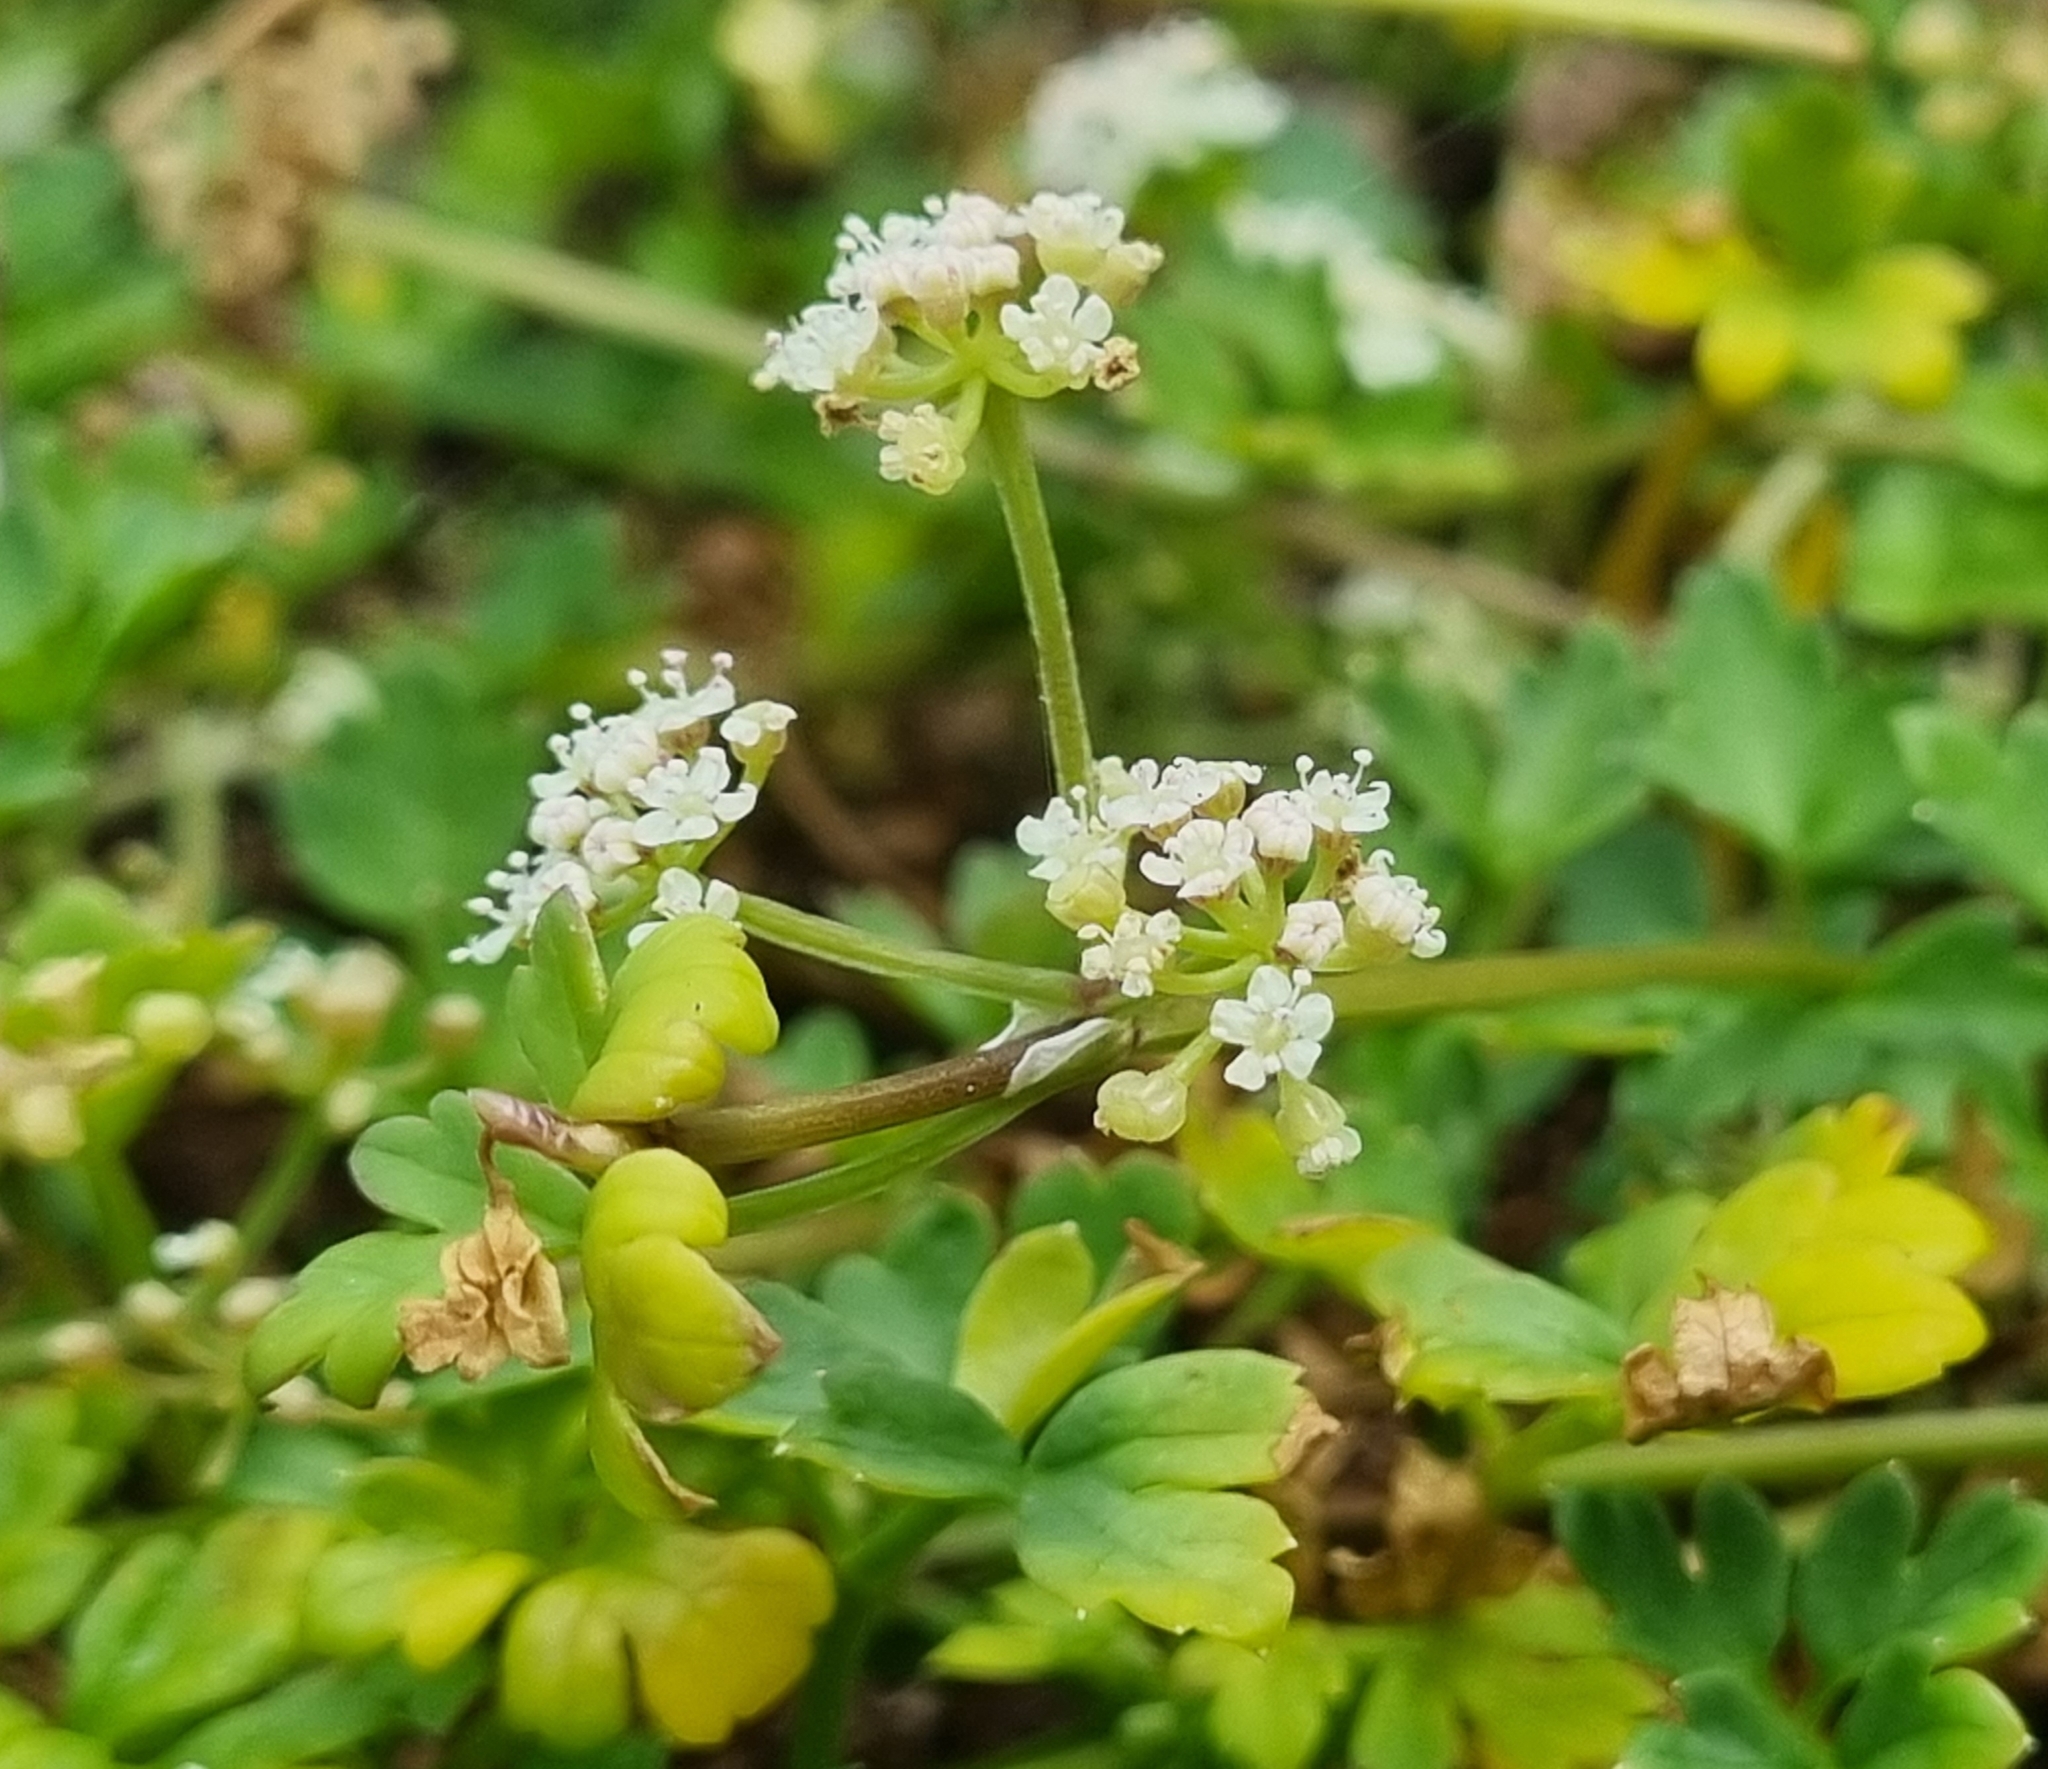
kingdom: Plantae
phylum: Tracheophyta
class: Magnoliopsida
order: Apiales
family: Apiaceae
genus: Apium
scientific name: Apium prostratum
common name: Prostrate marshwort
